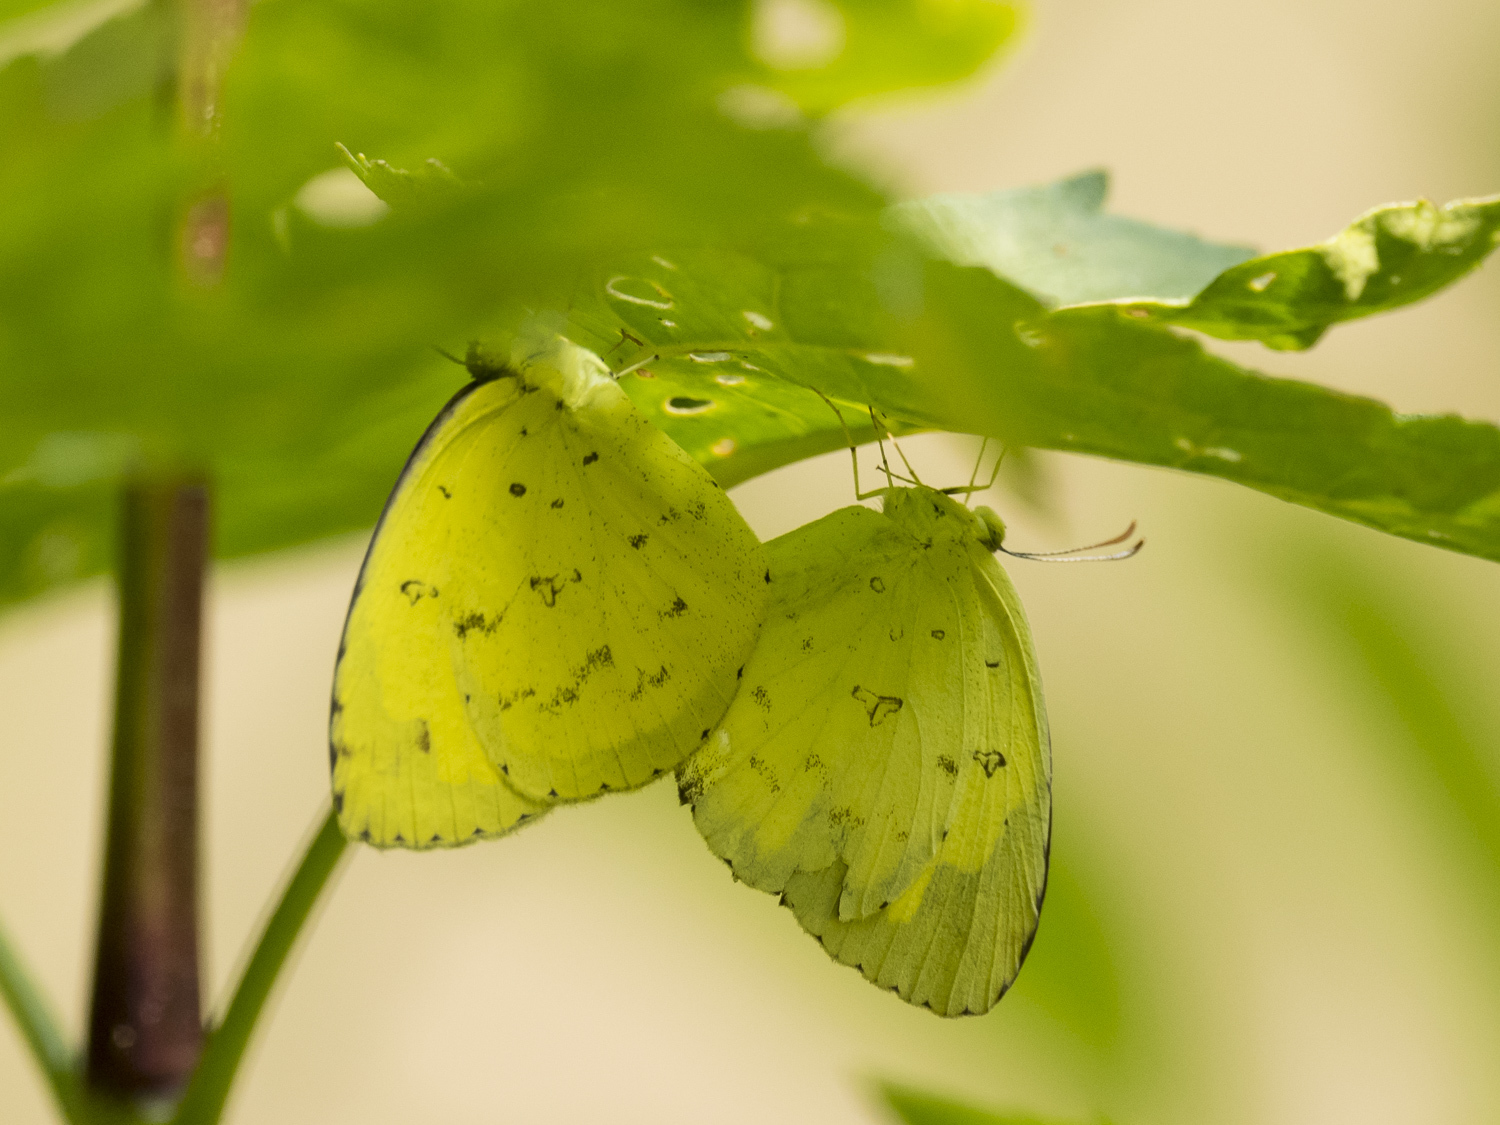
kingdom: Animalia
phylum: Arthropoda
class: Insecta
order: Lepidoptera
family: Pieridae
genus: Eurema
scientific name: Eurema hecabe
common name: Pale grass yellow
